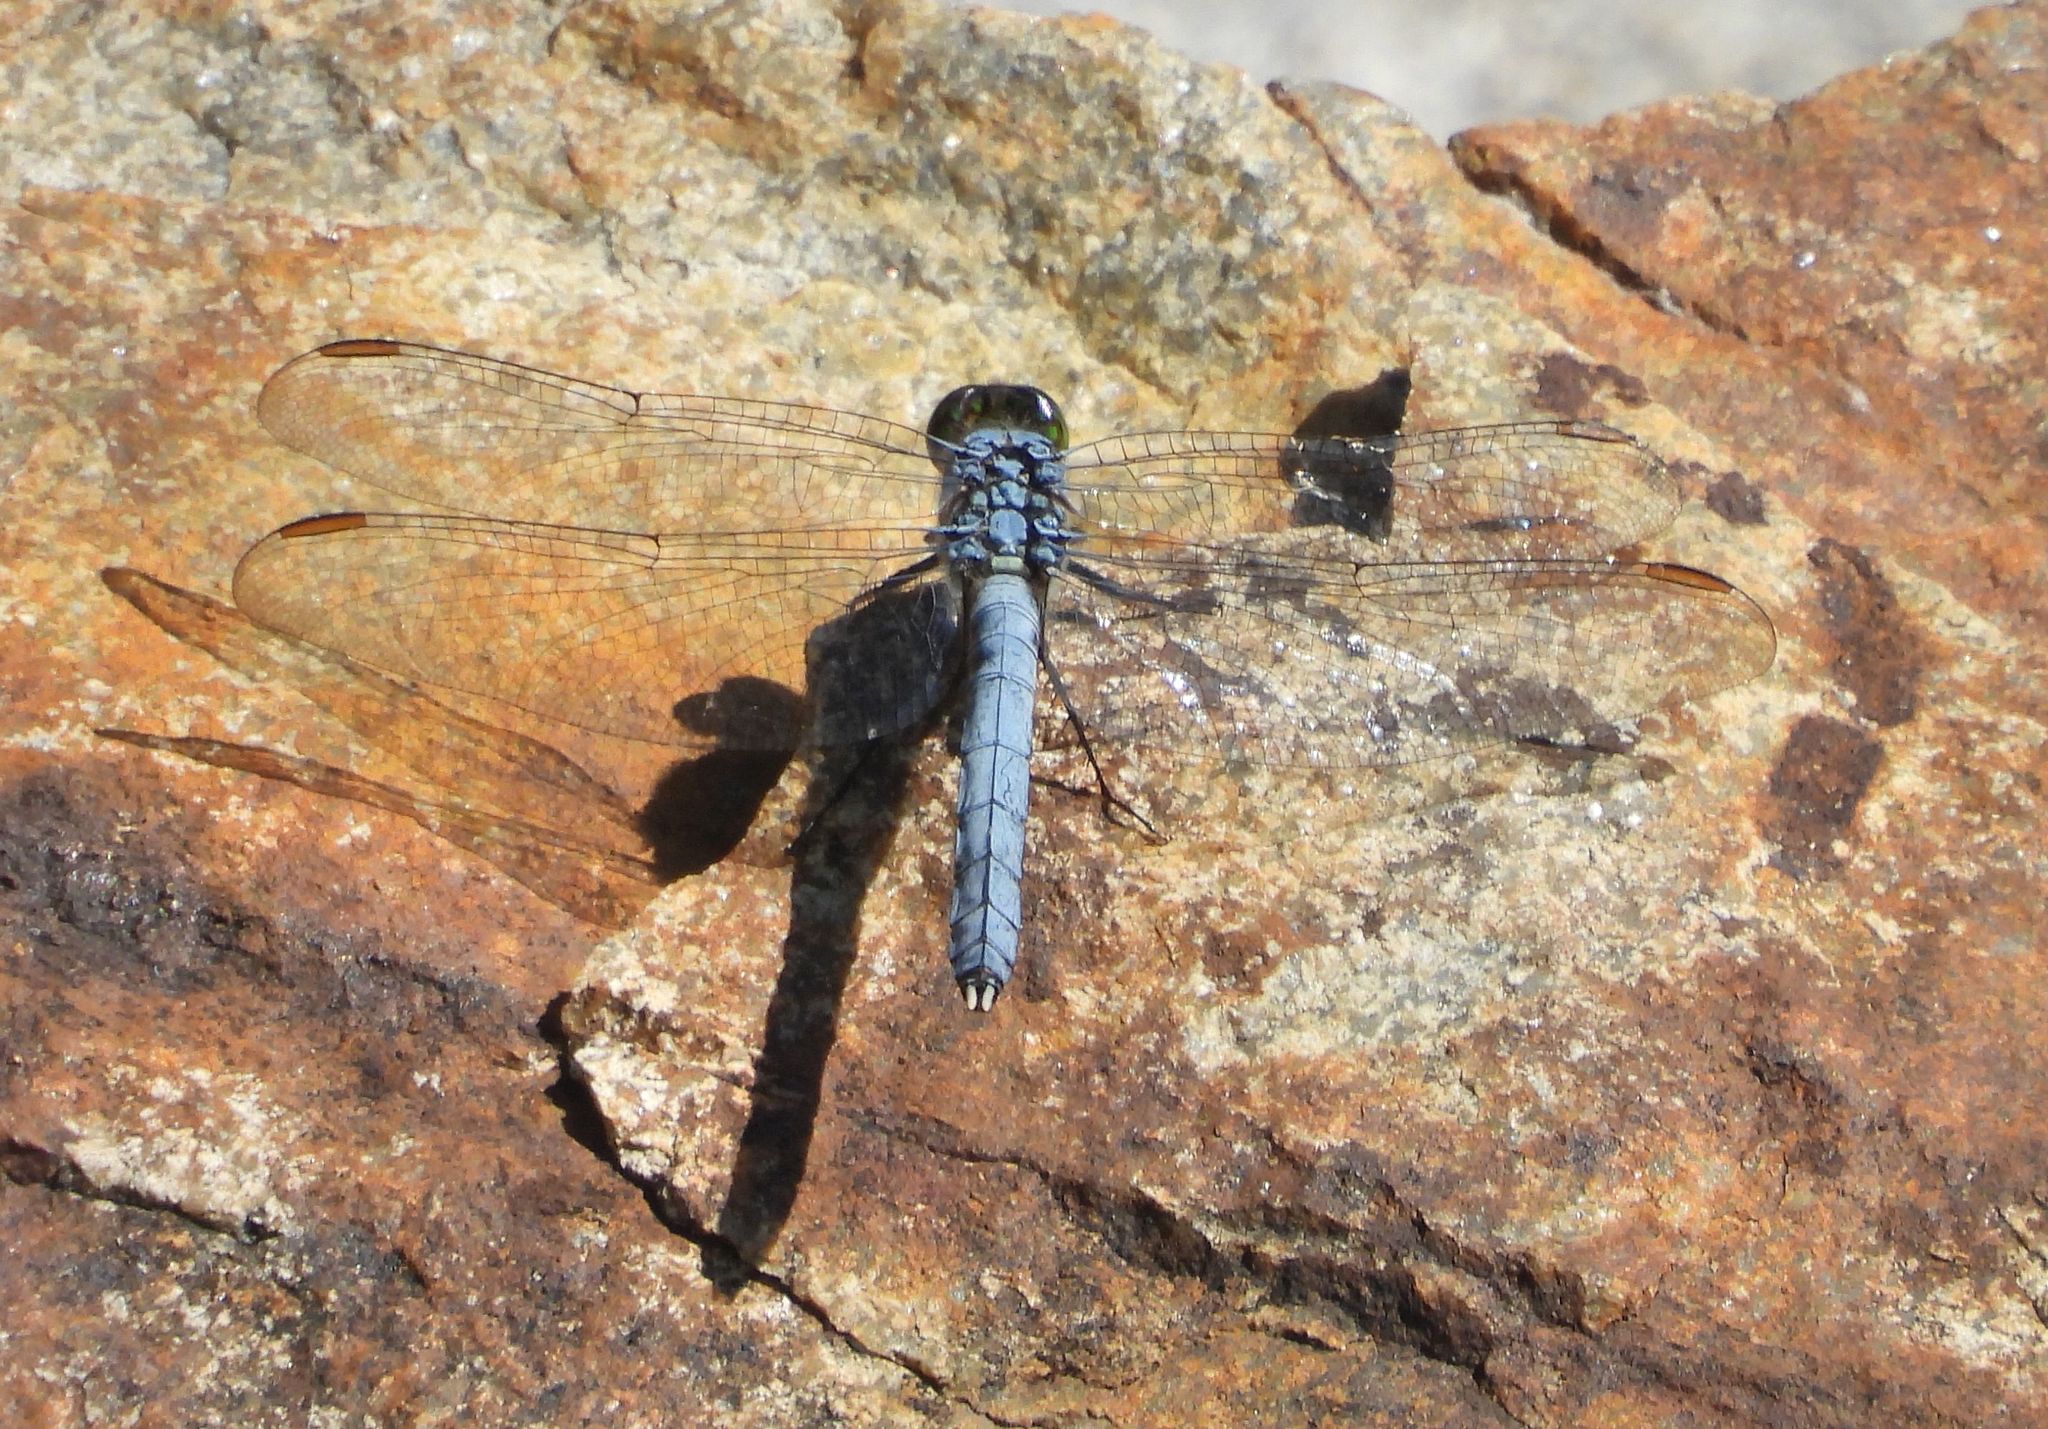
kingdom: Animalia
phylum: Arthropoda
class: Insecta
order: Odonata
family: Libellulidae
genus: Erythemis
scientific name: Erythemis simplicicollis
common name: Eastern pondhawk
